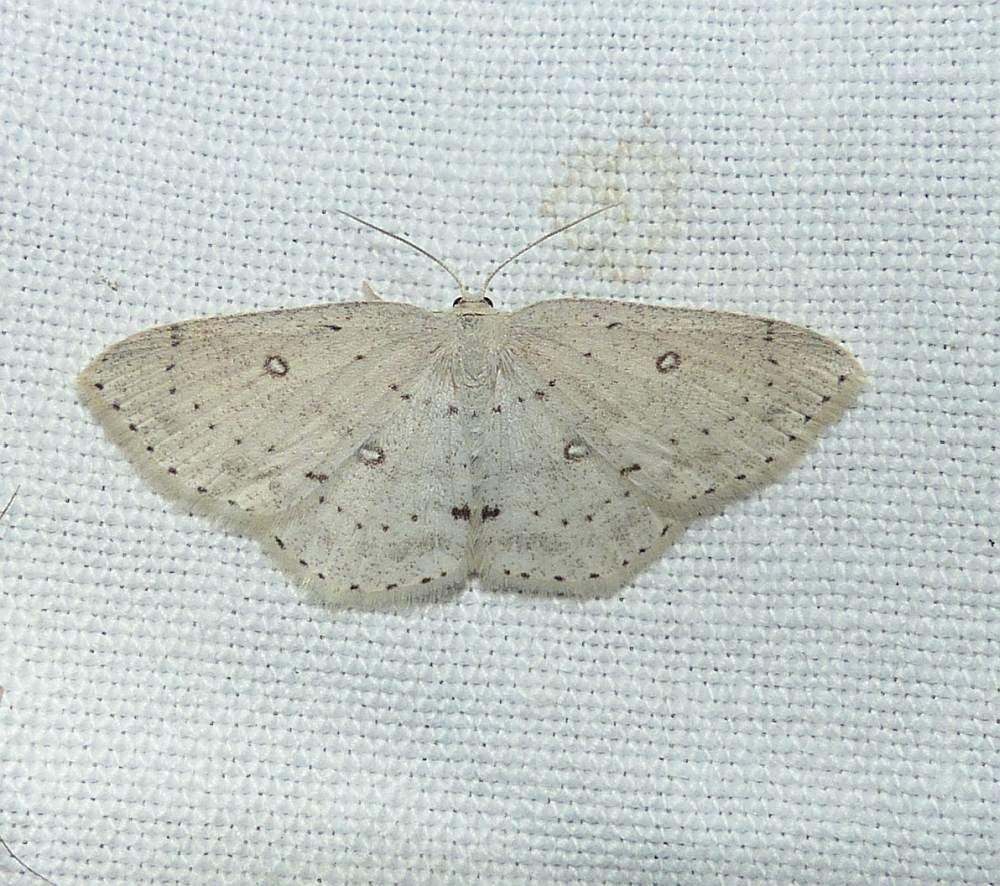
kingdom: Animalia
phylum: Arthropoda
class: Insecta
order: Lepidoptera
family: Geometridae
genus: Cyclophora
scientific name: Cyclophora pendulinaria
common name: Sweet fern geometer
